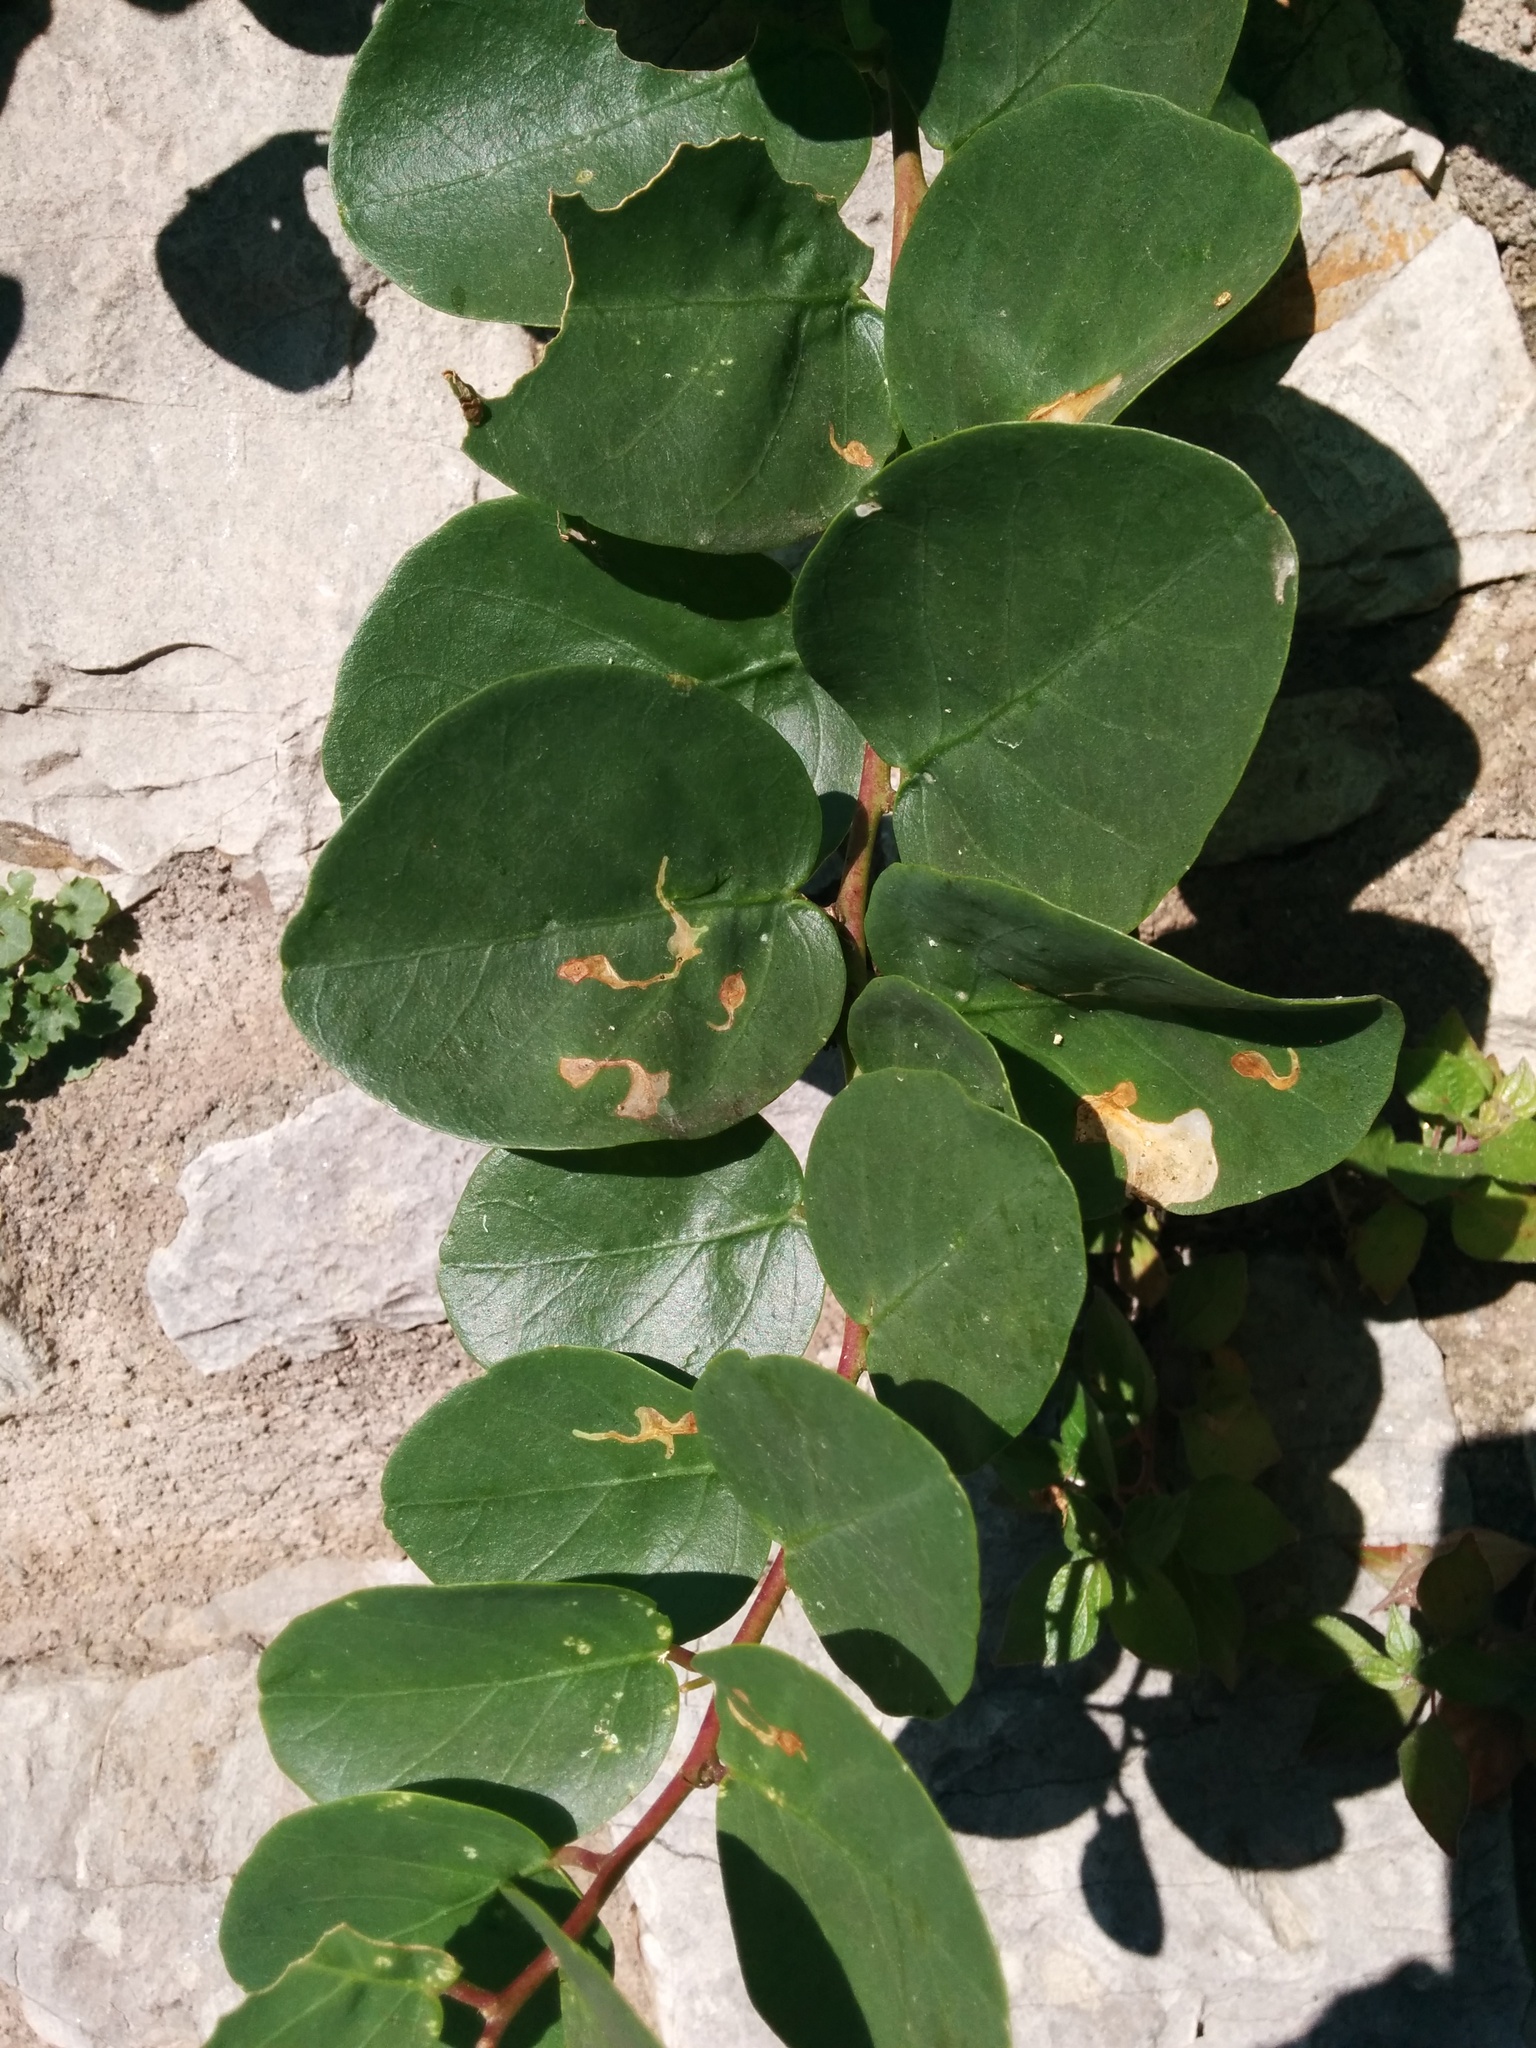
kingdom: Plantae
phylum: Tracheophyta
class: Magnoliopsida
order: Brassicales
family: Capparaceae
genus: Capparis
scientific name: Capparis spinosa
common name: Caper
